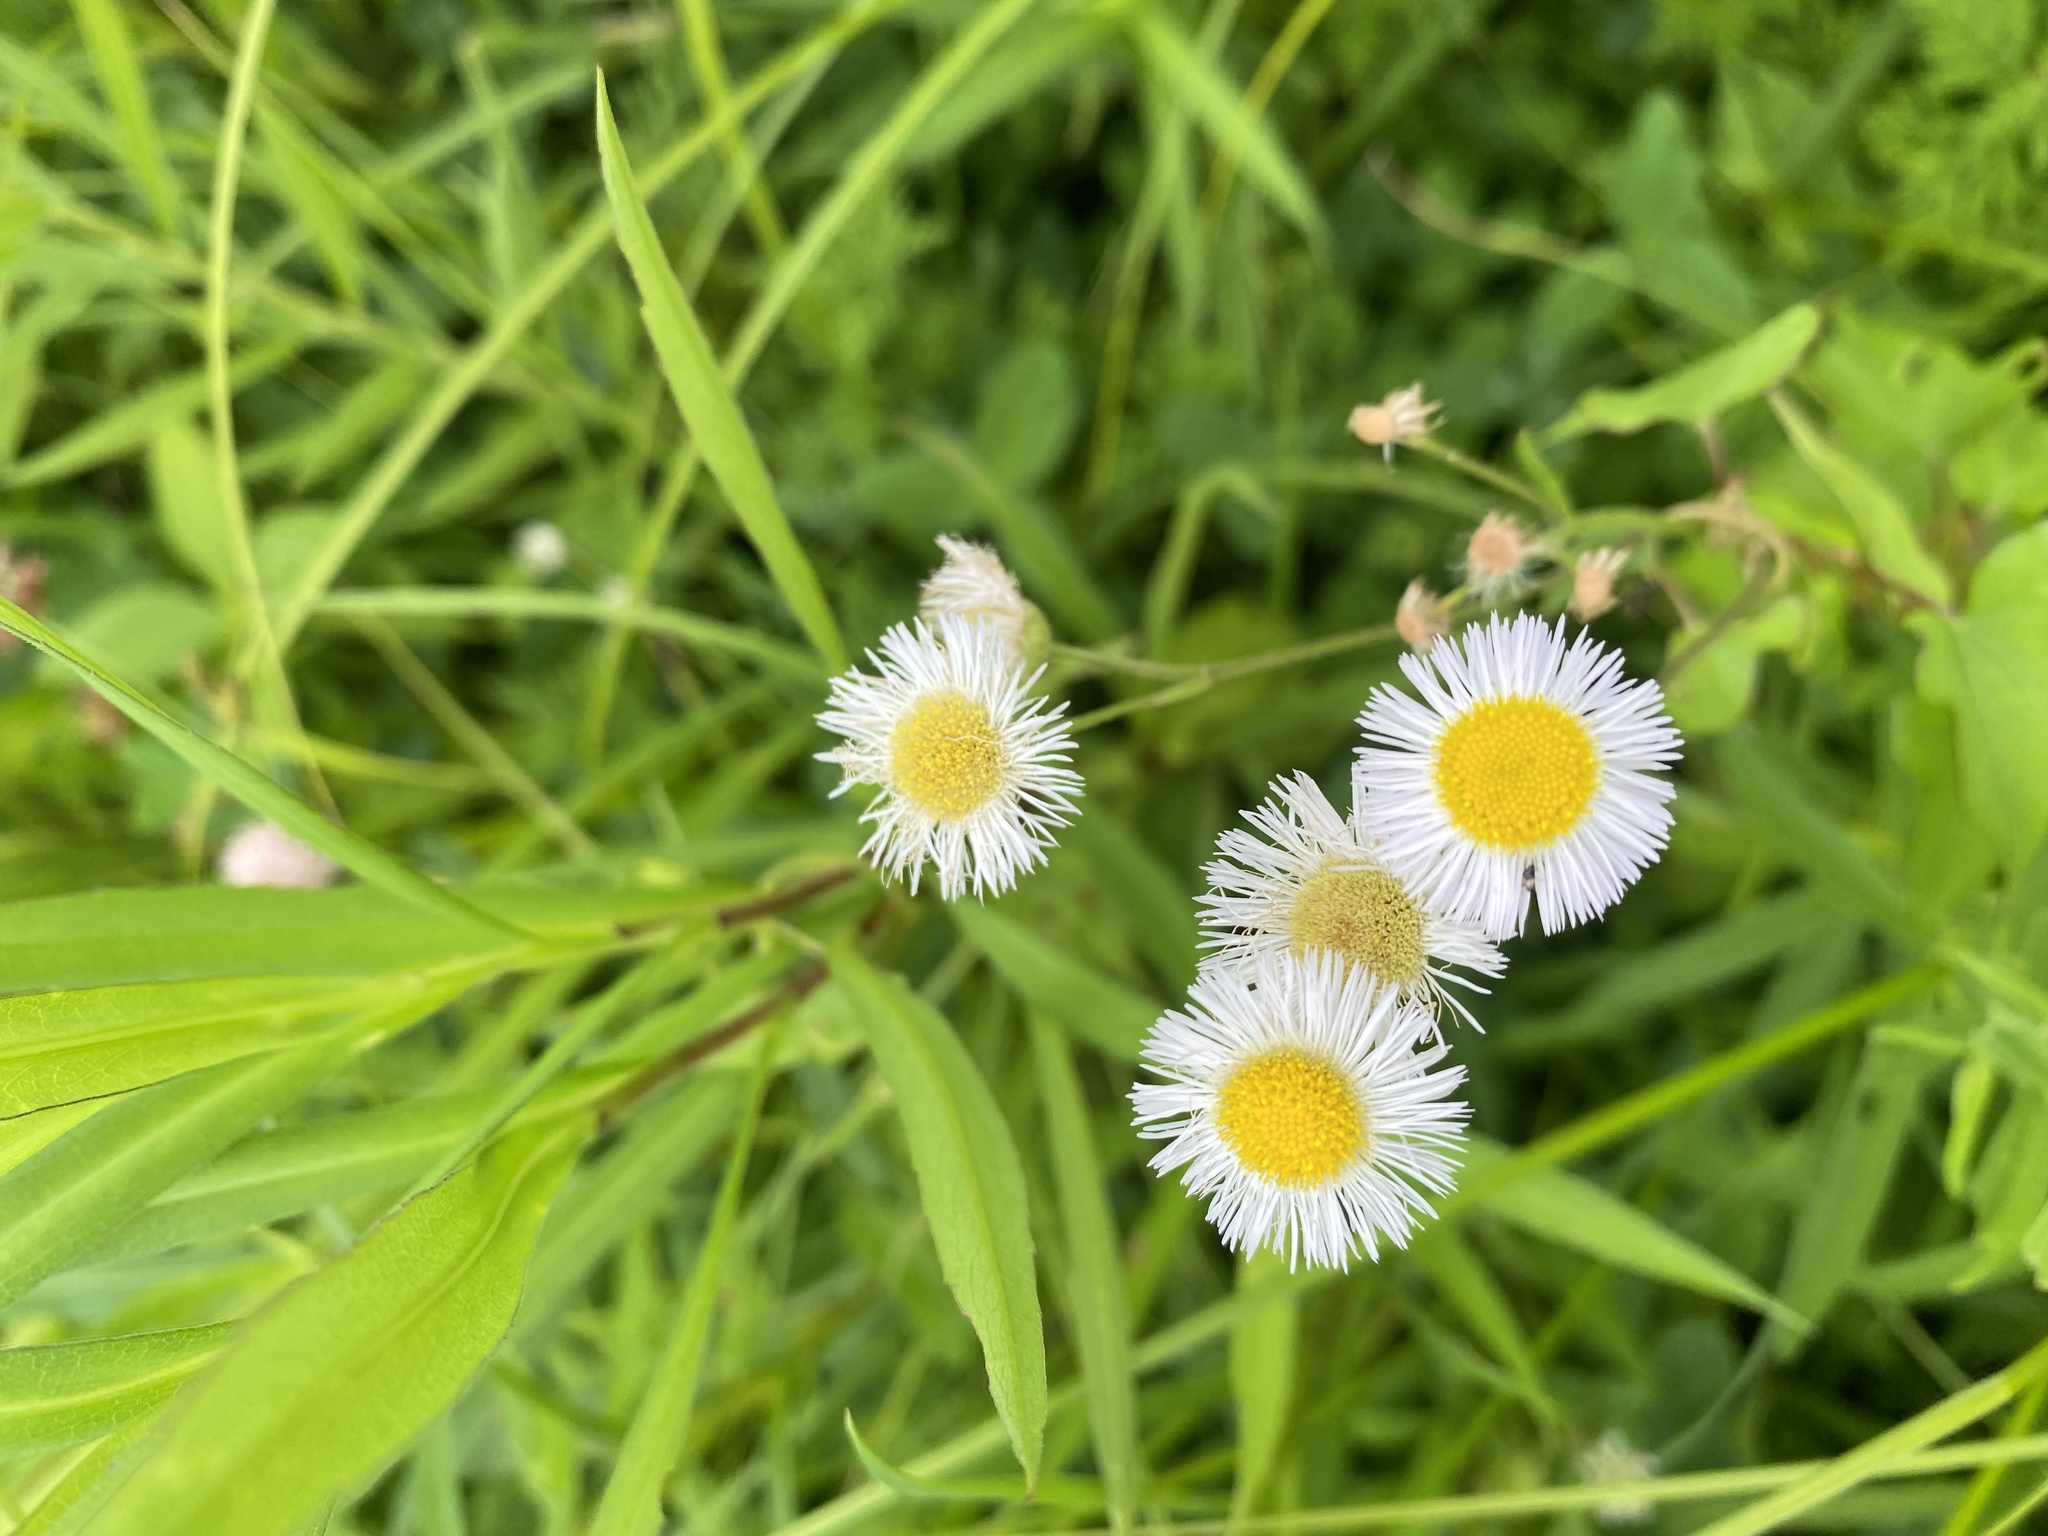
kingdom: Plantae
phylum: Tracheophyta
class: Magnoliopsida
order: Asterales
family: Asteraceae
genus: Erigeron
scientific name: Erigeron philadelphicus
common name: Robin's-plantain
